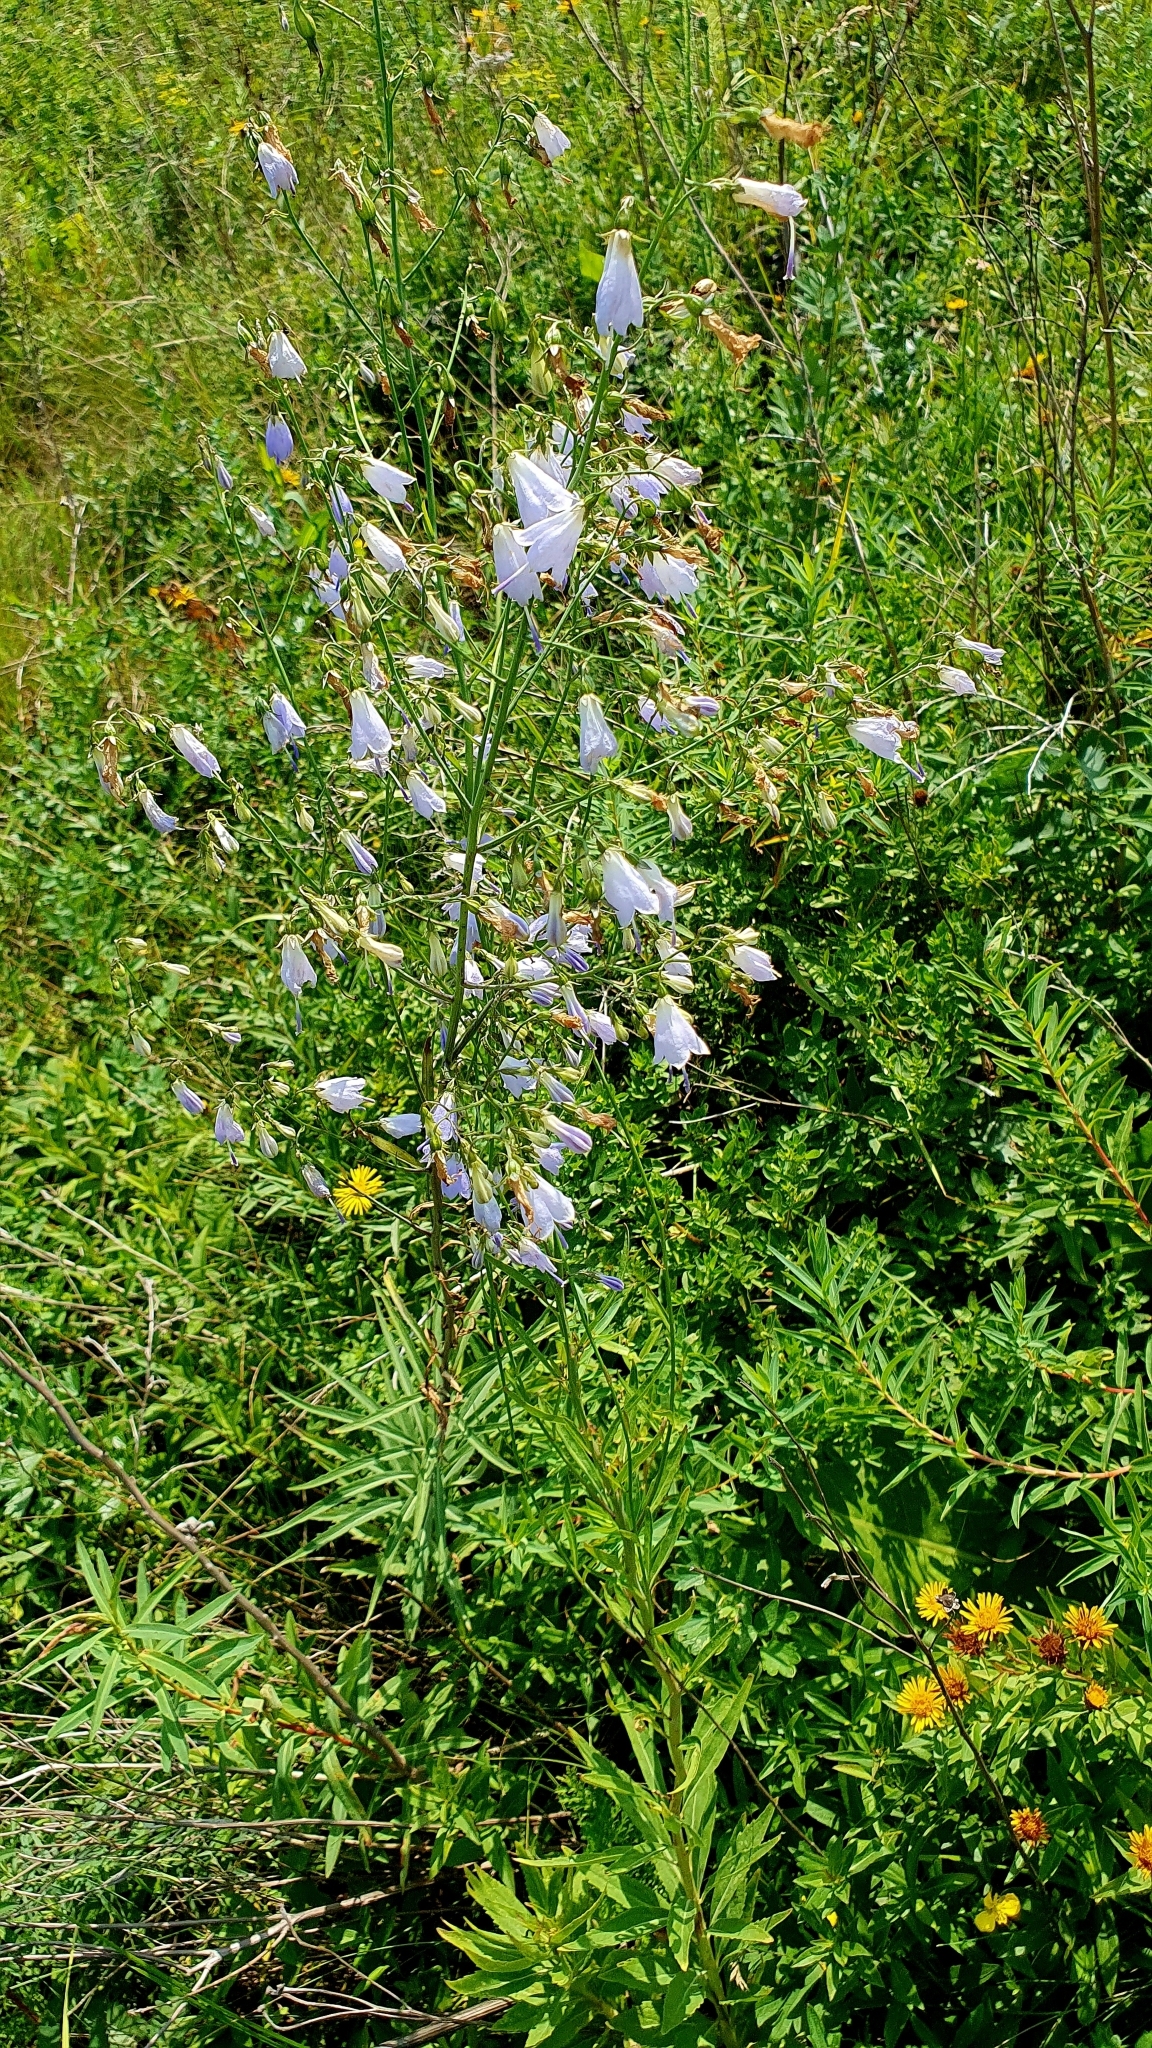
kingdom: Plantae
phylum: Tracheophyta
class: Magnoliopsida
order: Asterales
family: Campanulaceae
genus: Adenophora
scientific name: Adenophora liliifolia
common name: Lilyleaf ladybells
